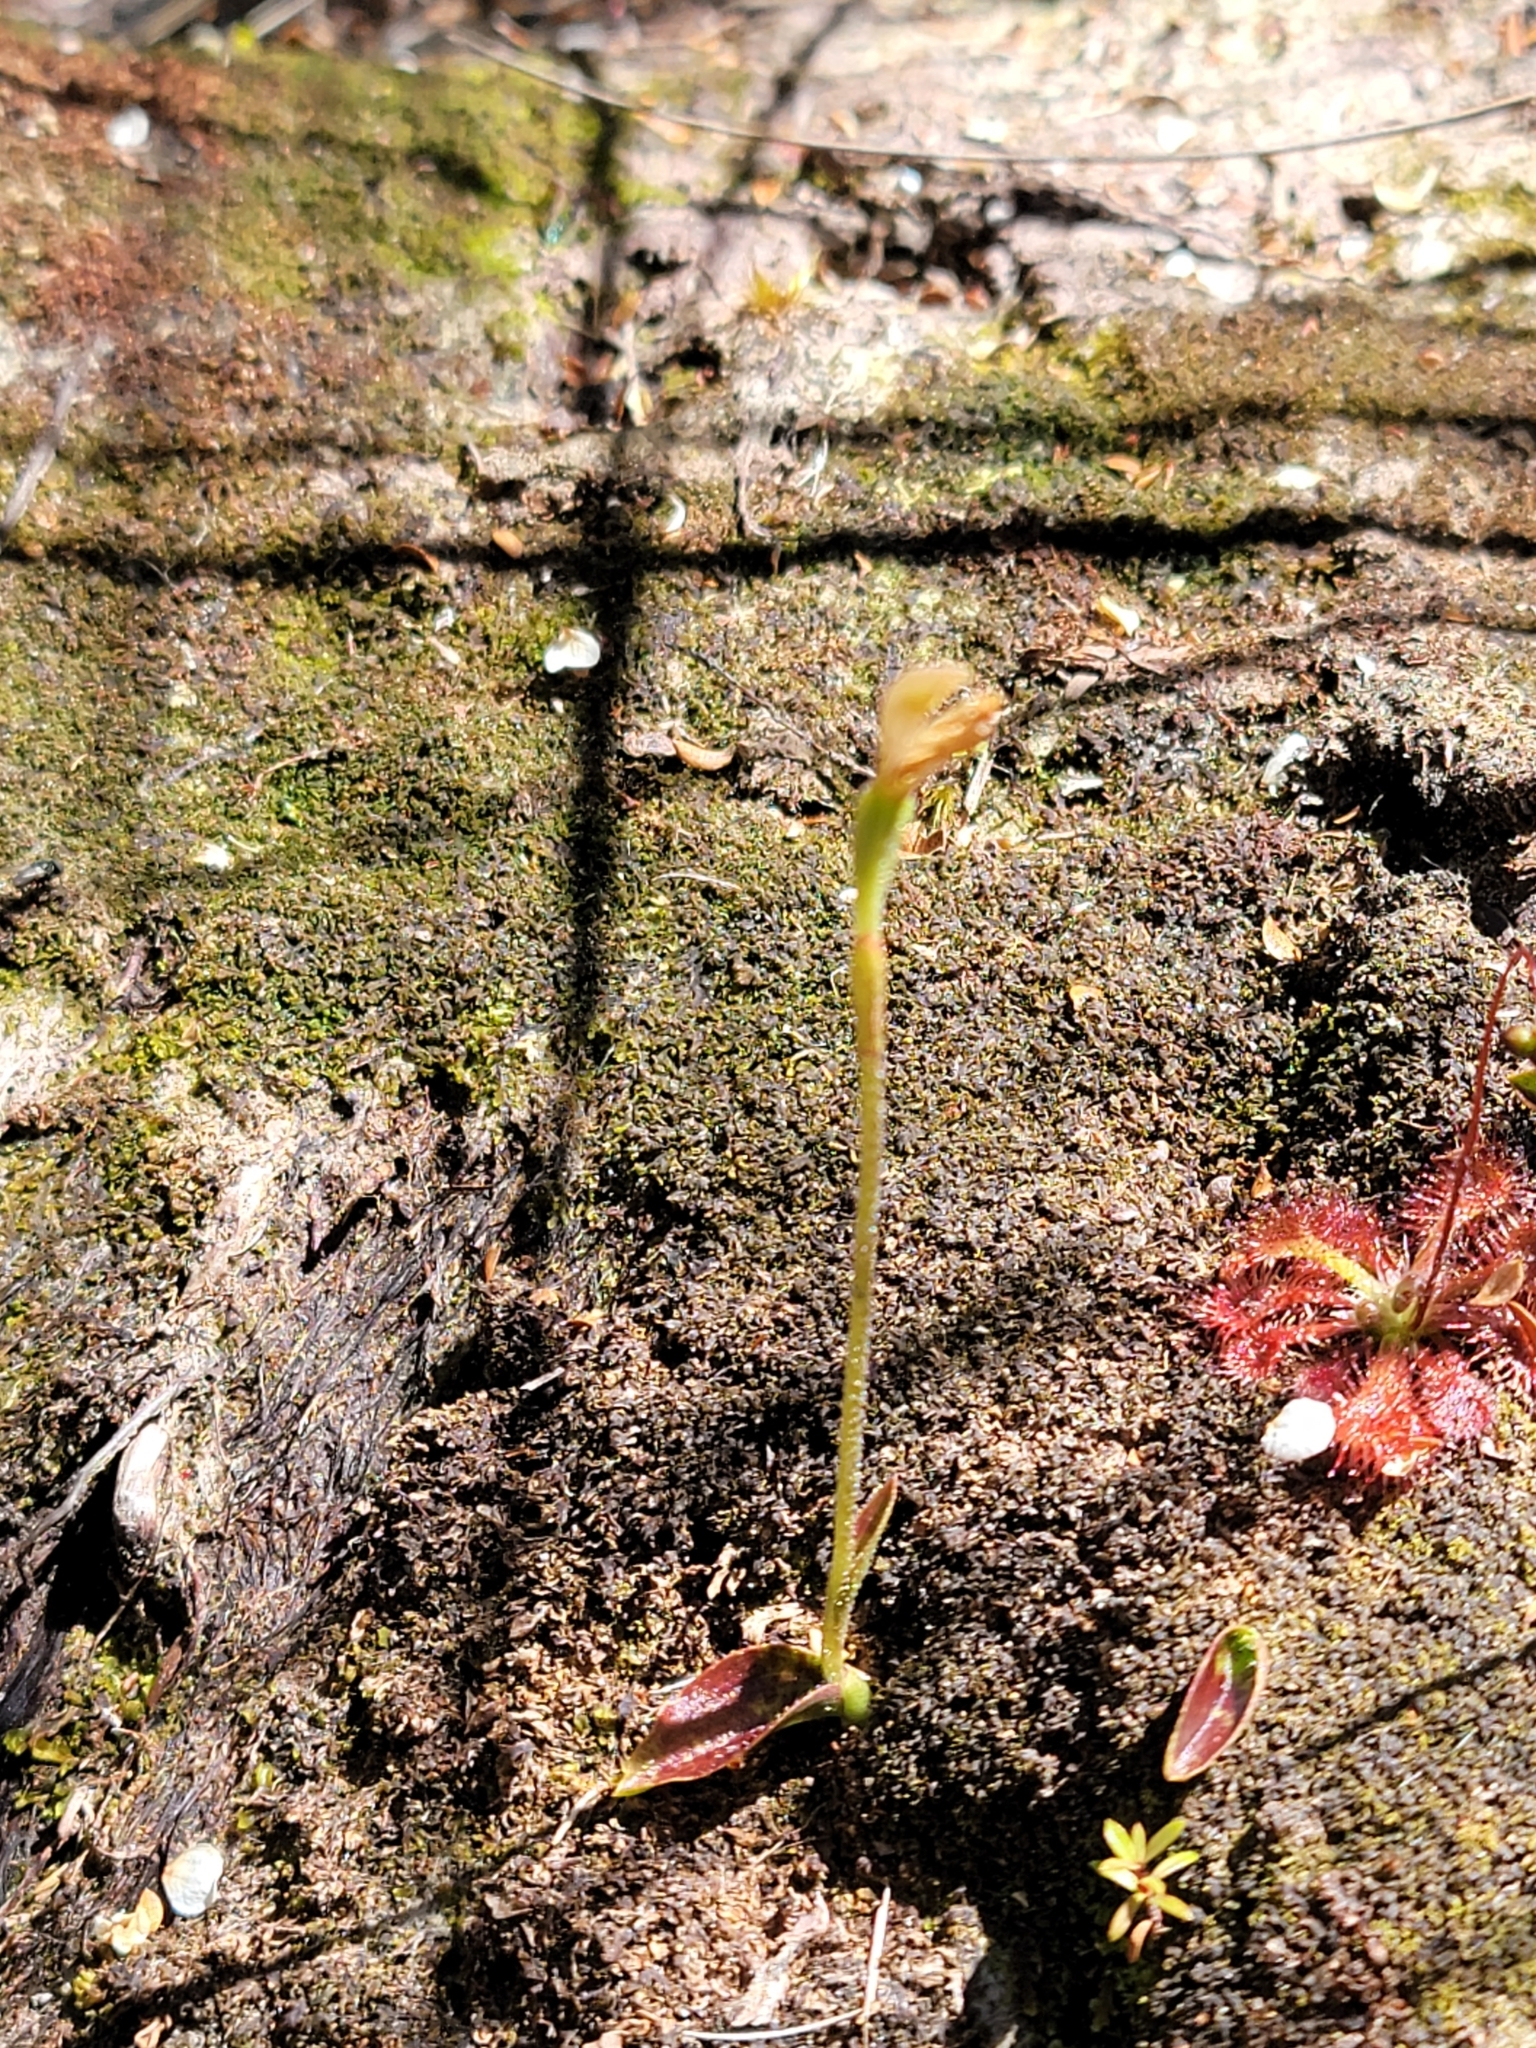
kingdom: Plantae
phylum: Tracheophyta
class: Liliopsida
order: Asparagales
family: Orchidaceae
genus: Aporostylis
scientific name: Aporostylis bifolia
